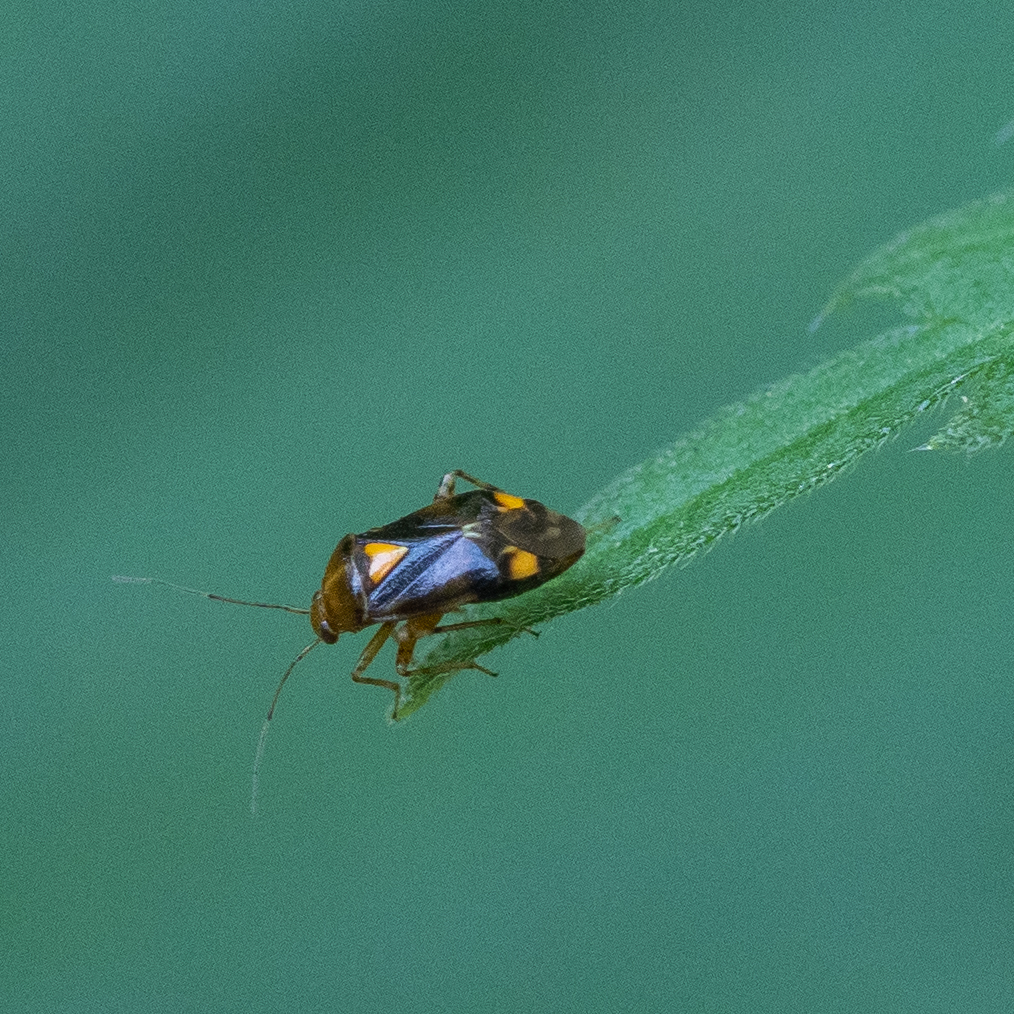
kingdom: Animalia
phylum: Arthropoda
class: Insecta
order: Hemiptera
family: Miridae
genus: Liocoris
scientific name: Liocoris tripustulatus
